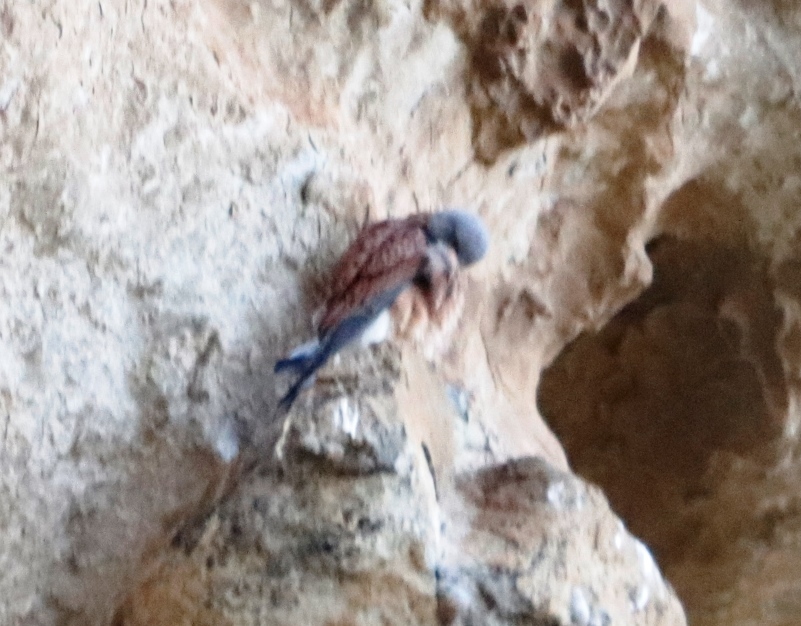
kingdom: Animalia
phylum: Chordata
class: Aves
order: Falconiformes
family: Falconidae
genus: Falco
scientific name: Falco rupicolus
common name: Rock kestrel
